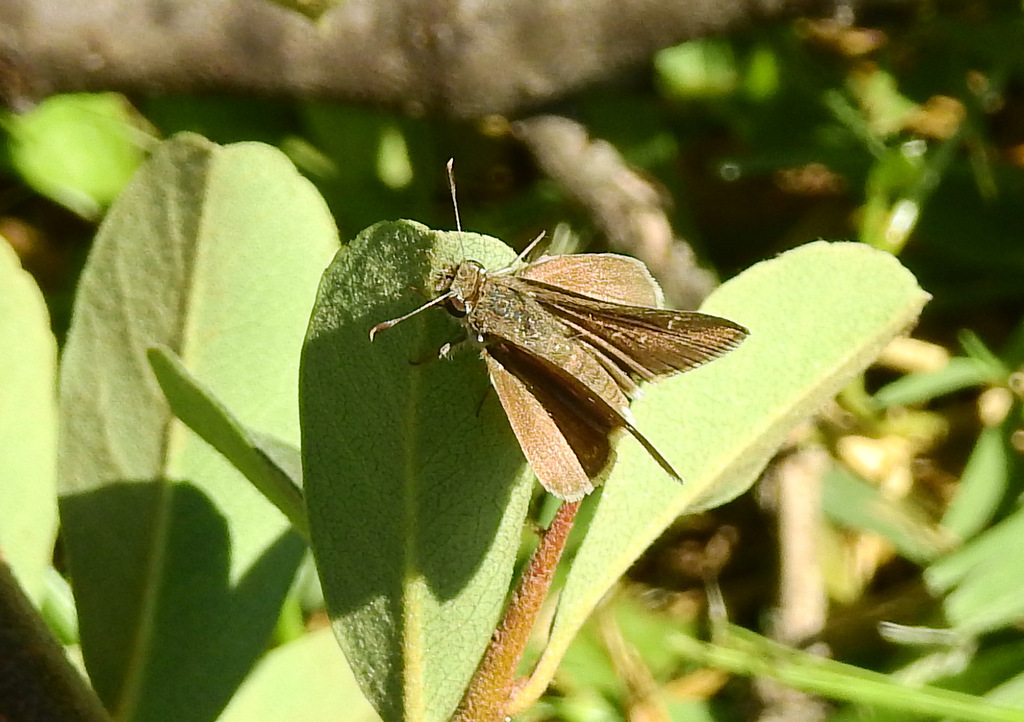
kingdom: Animalia
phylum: Arthropoda
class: Insecta
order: Lepidoptera
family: Hesperiidae
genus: Lerodea
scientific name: Lerodea eufala
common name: Eufala skipper
